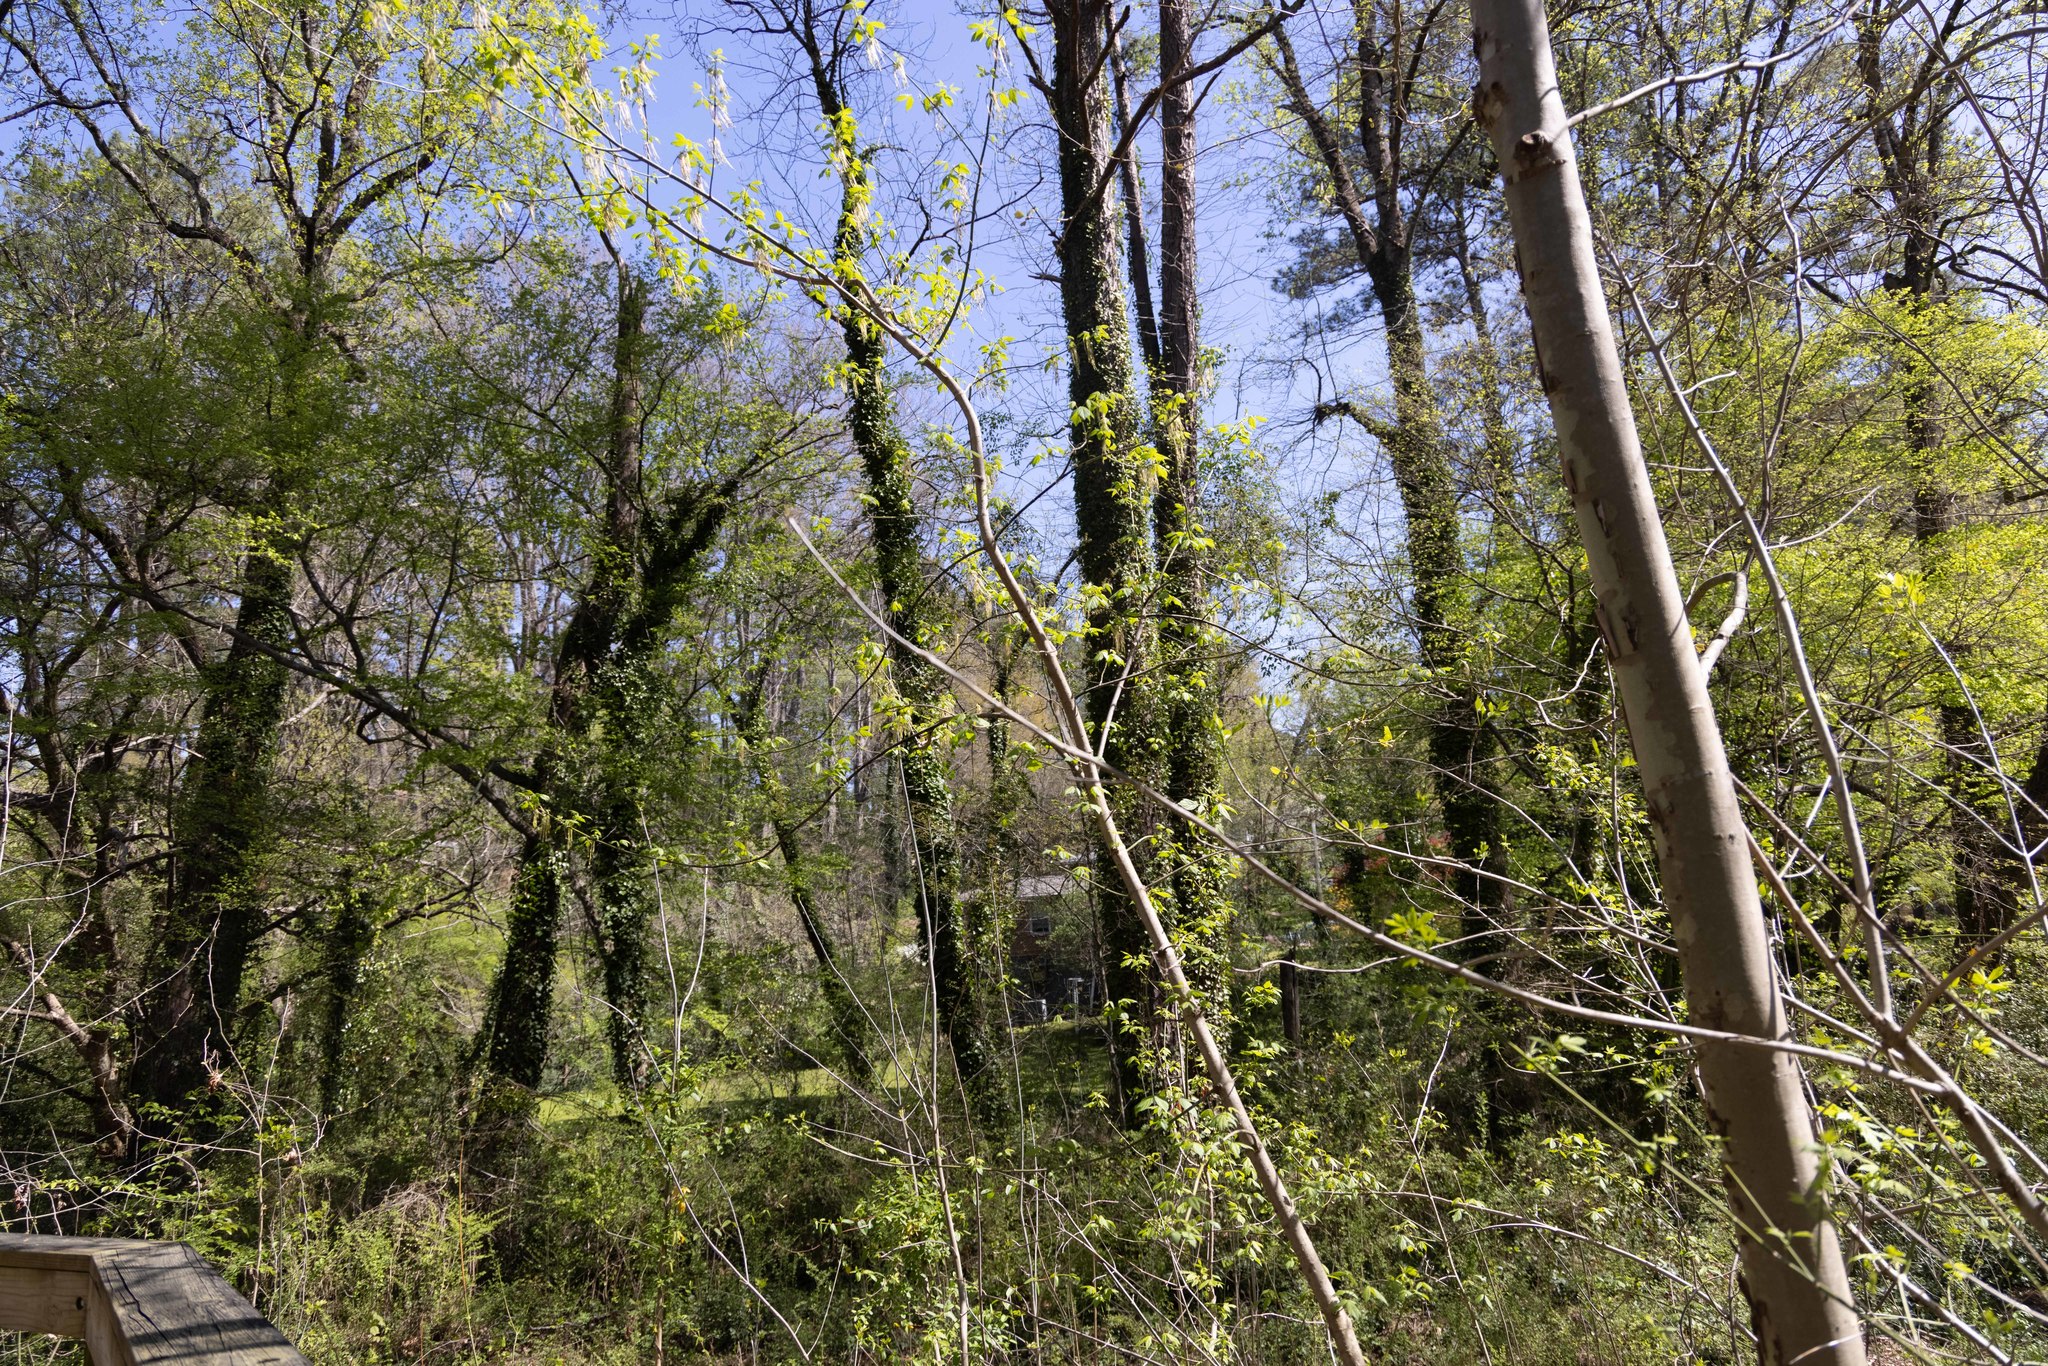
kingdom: Plantae
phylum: Tracheophyta
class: Magnoliopsida
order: Sapindales
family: Sapindaceae
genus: Acer
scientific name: Acer negundo
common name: Ashleaf maple
